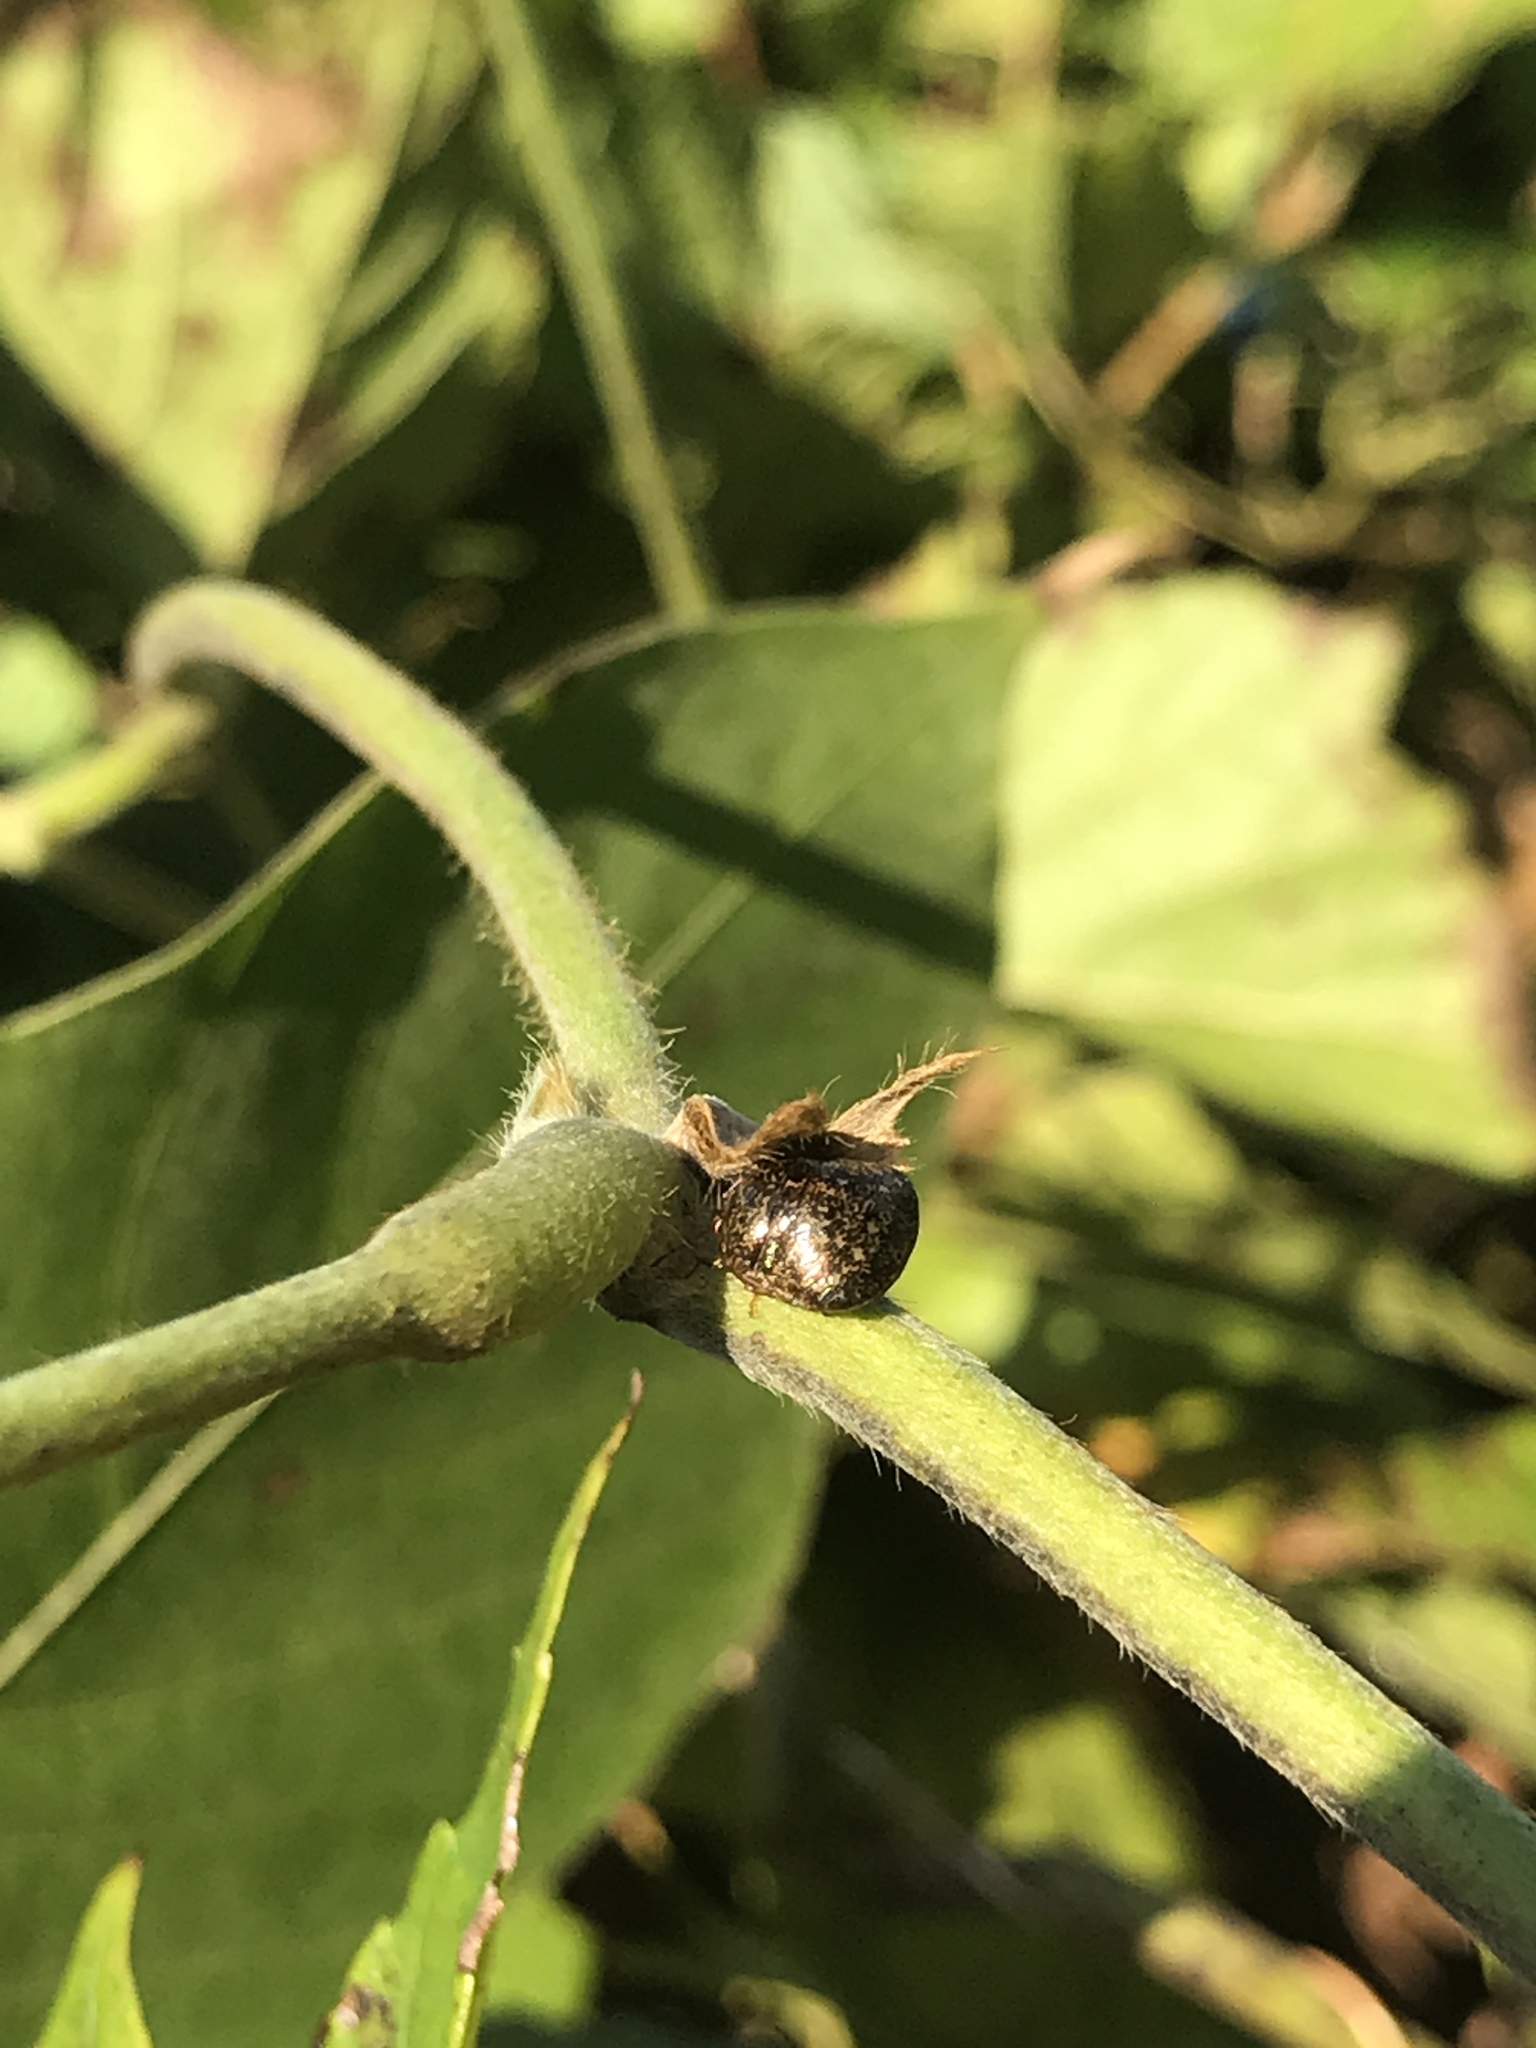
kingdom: Animalia
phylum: Arthropoda
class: Insecta
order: Hemiptera
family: Plataspidae
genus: Megacopta
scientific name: Megacopta cribraria
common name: Bean plataspid
